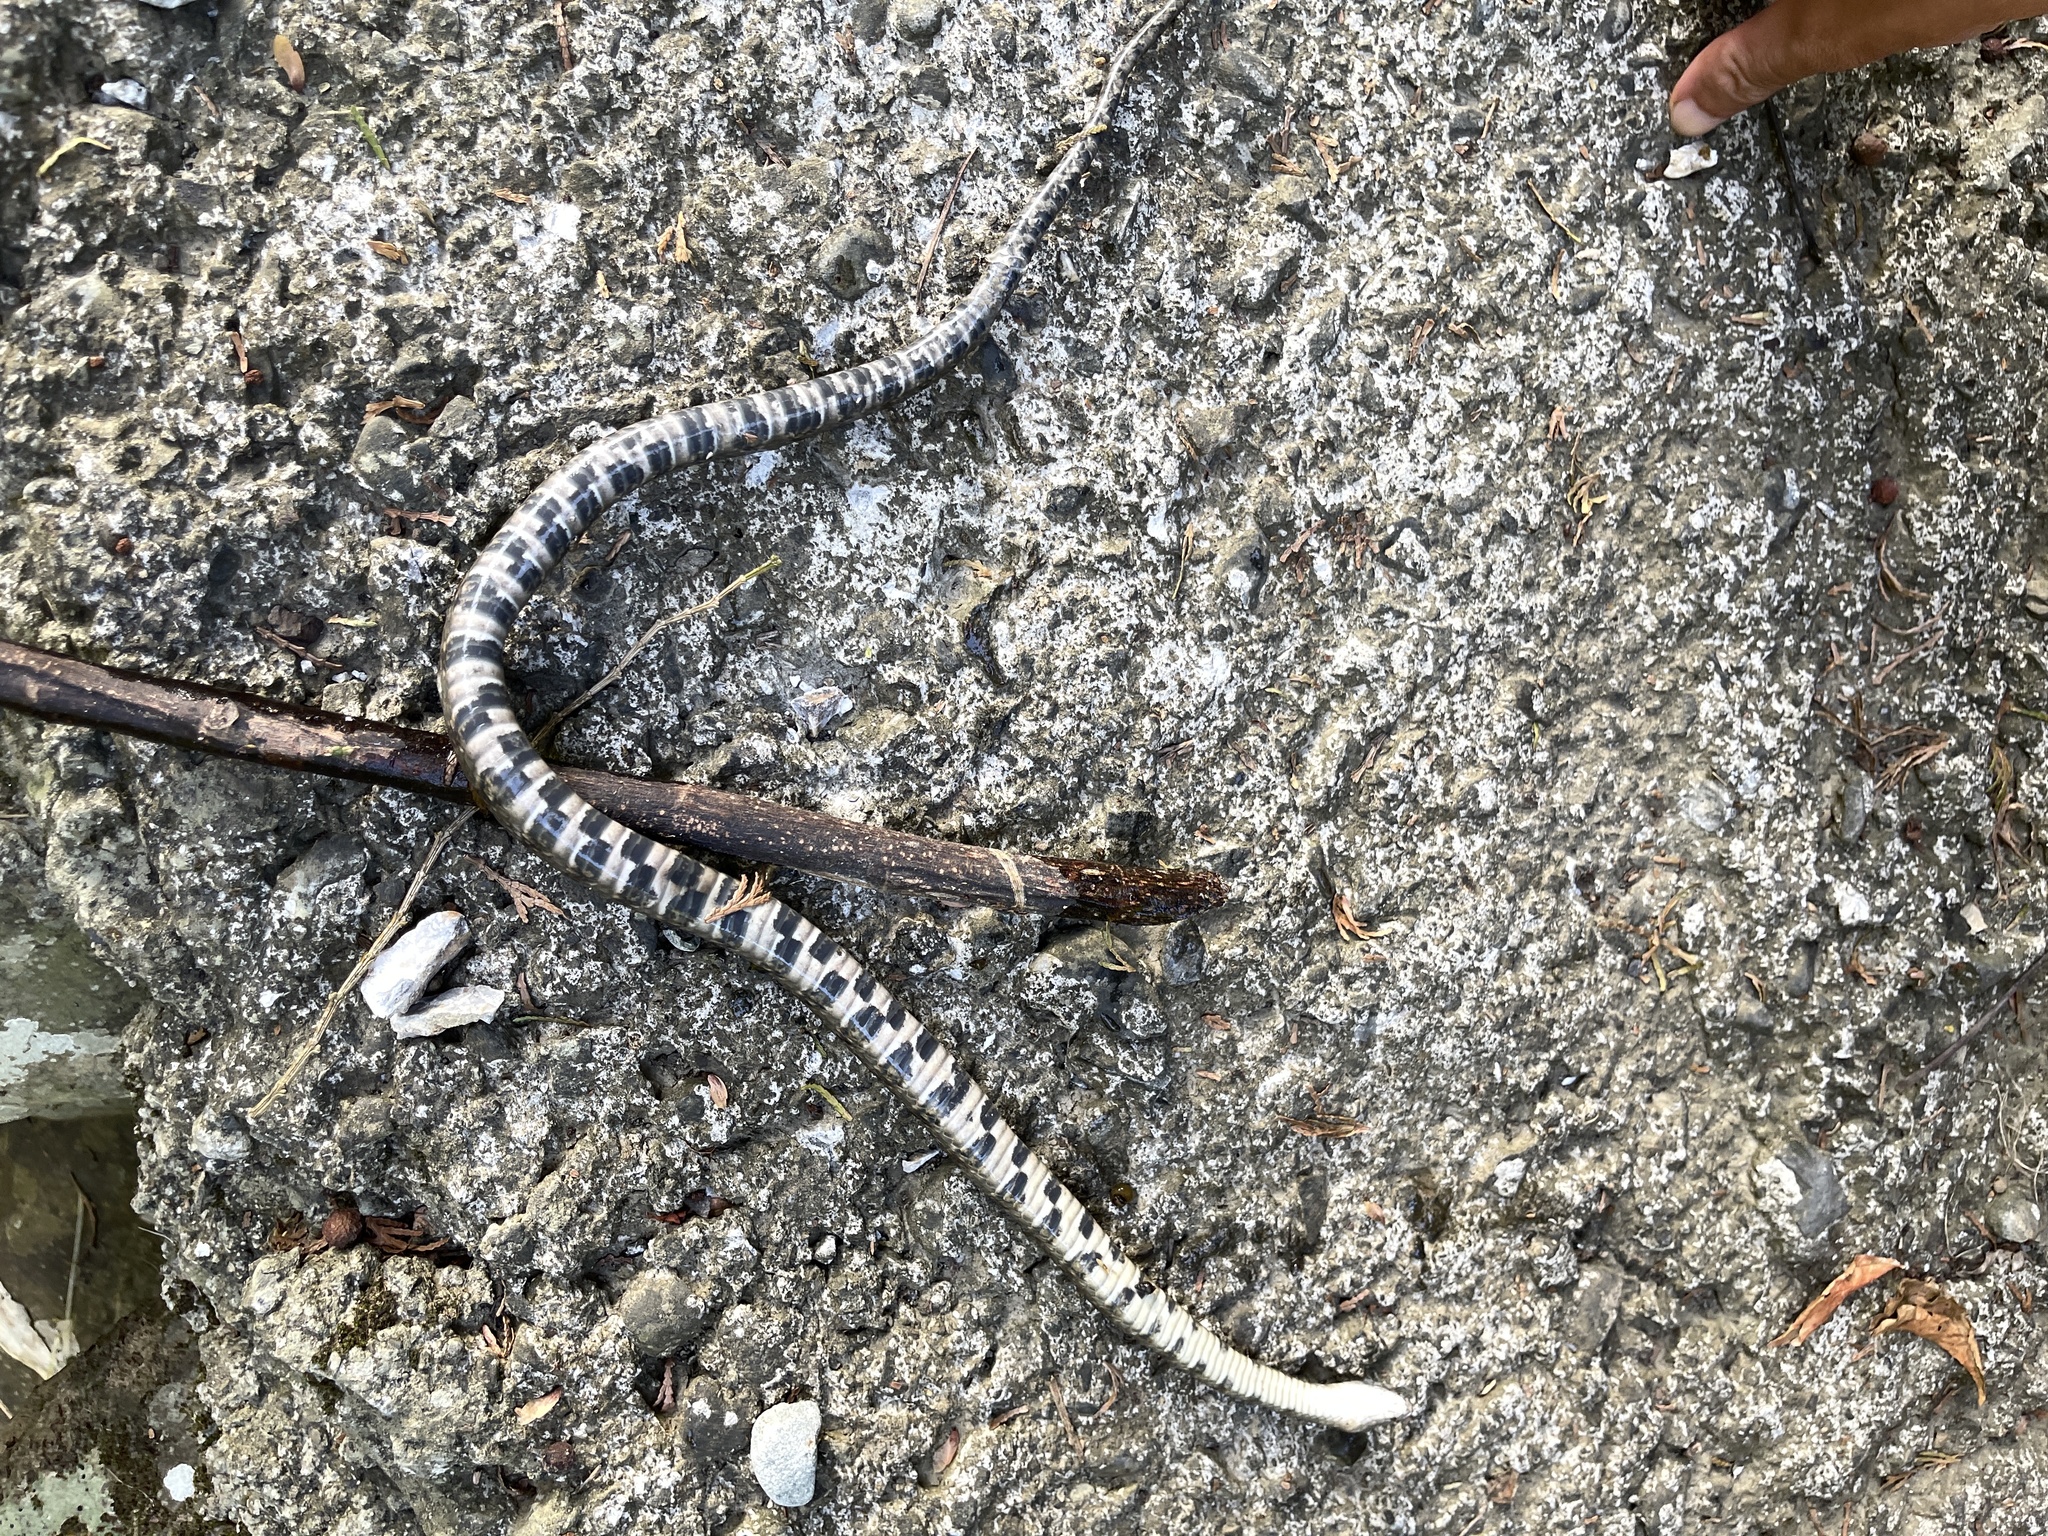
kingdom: Animalia
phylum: Chordata
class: Squamata
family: Colubridae
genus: Trimerodytes
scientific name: Trimerodytes percarinatus
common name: Eastern water snake
